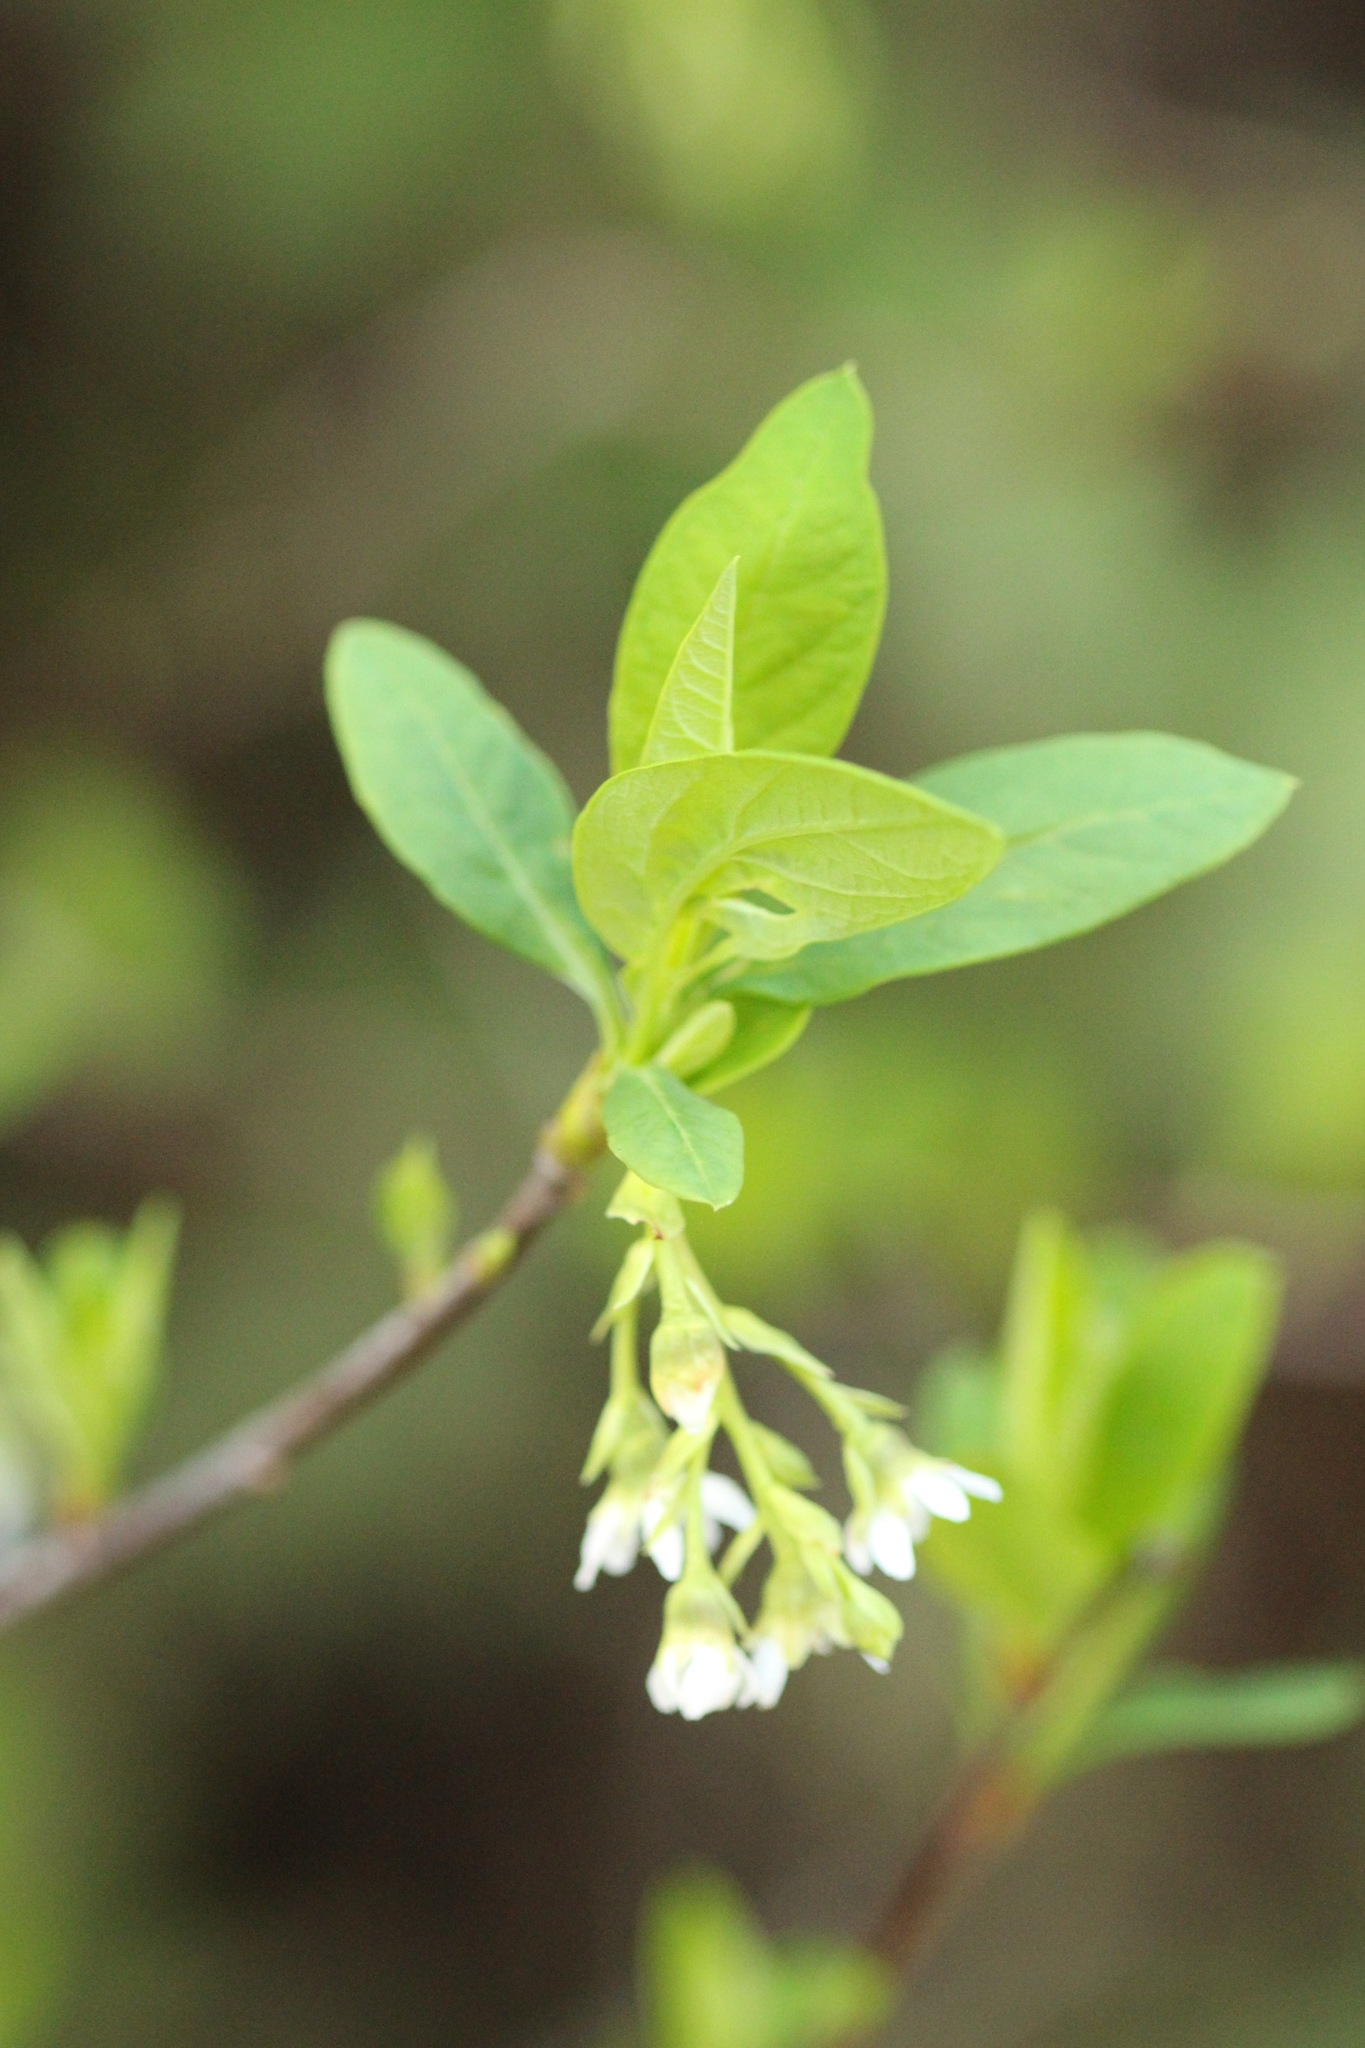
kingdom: Plantae
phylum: Tracheophyta
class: Magnoliopsida
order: Rosales
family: Rosaceae
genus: Oemleria
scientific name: Oemleria cerasiformis
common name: Osoberry
